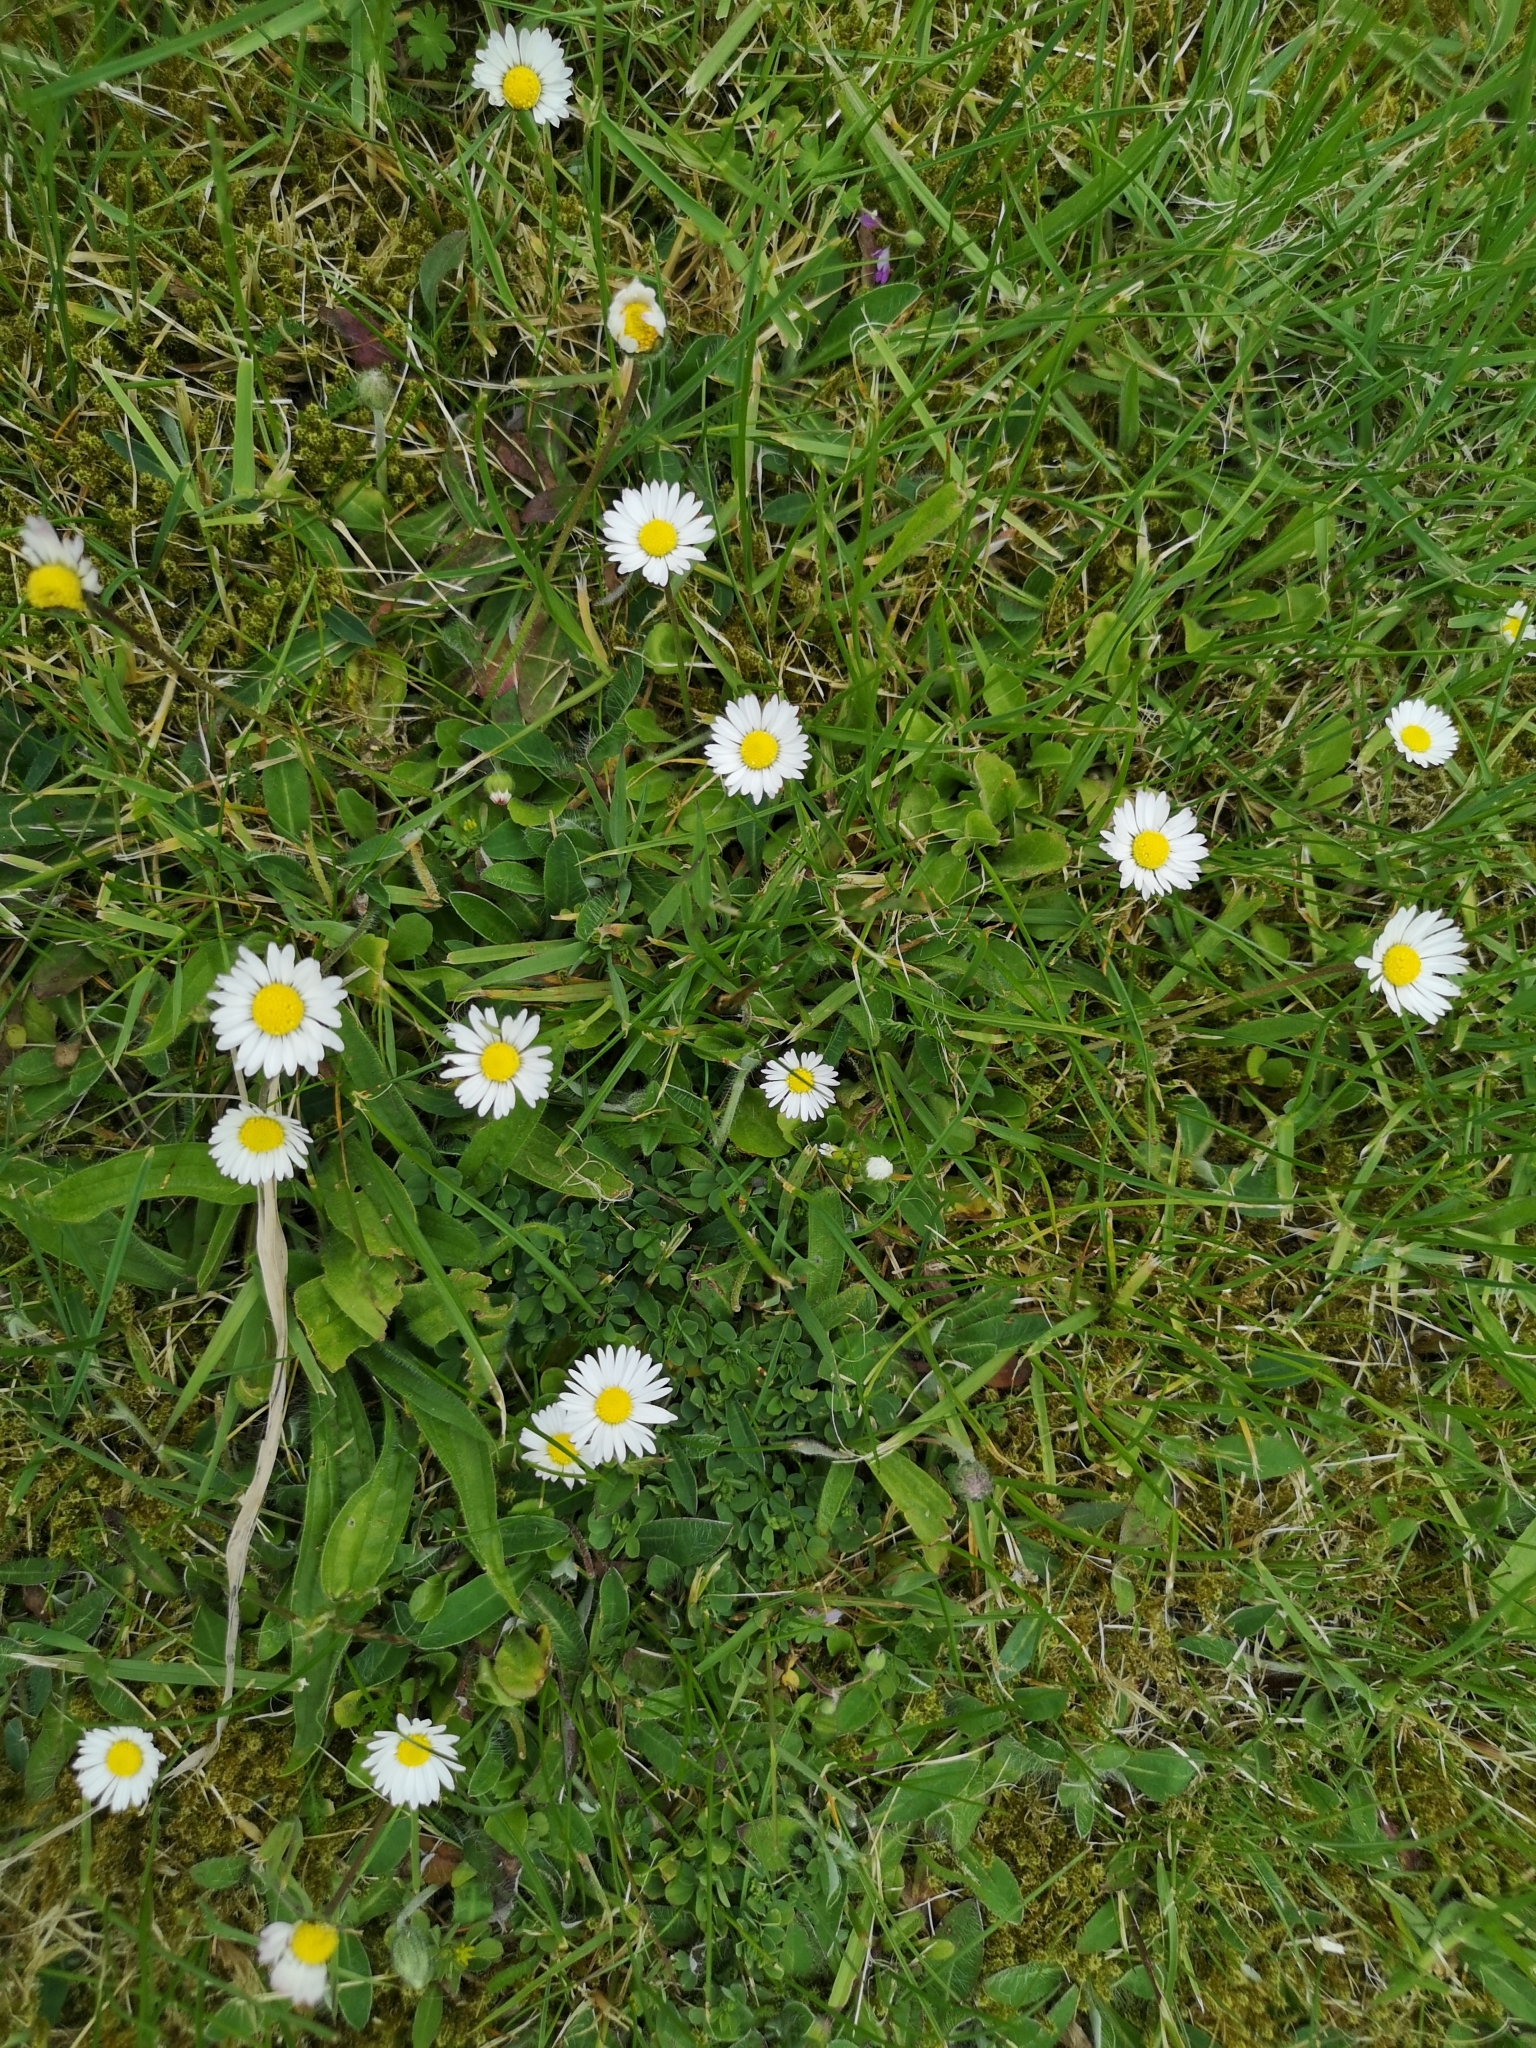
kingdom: Plantae
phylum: Tracheophyta
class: Magnoliopsida
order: Asterales
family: Asteraceae
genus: Bellis
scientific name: Bellis perennis
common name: Lawndaisy
